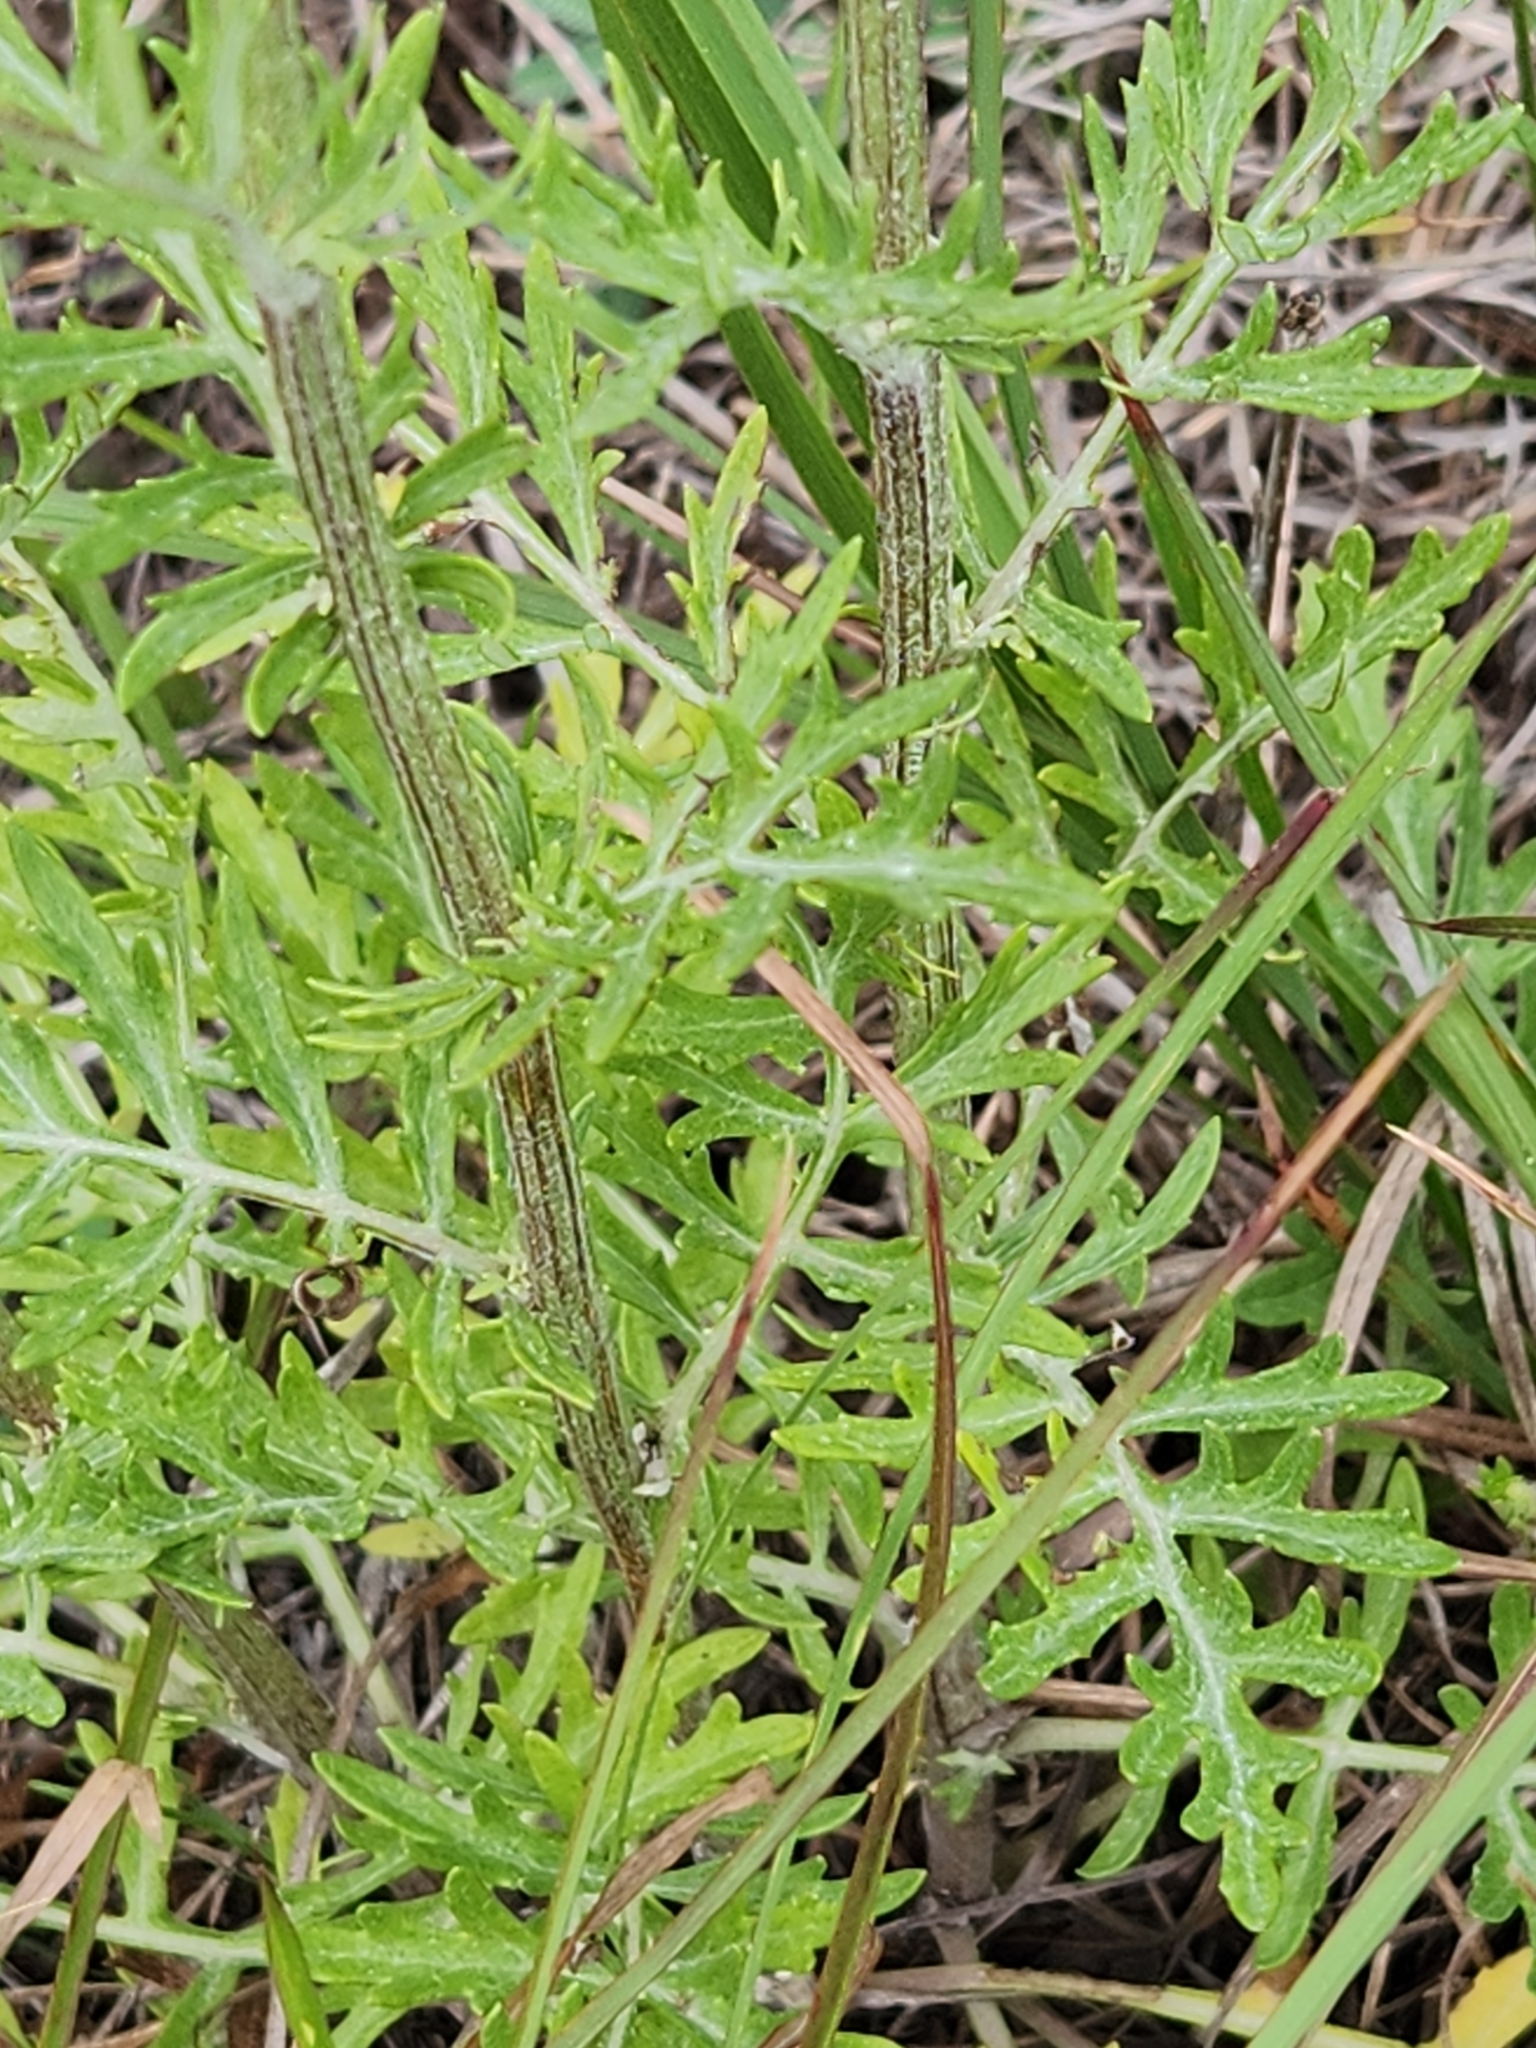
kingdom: Plantae
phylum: Tracheophyta
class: Magnoliopsida
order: Asterales
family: Asteraceae
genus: Hymenopappus
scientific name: Hymenopappus scabiosaeus
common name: Carolina woollywhite
